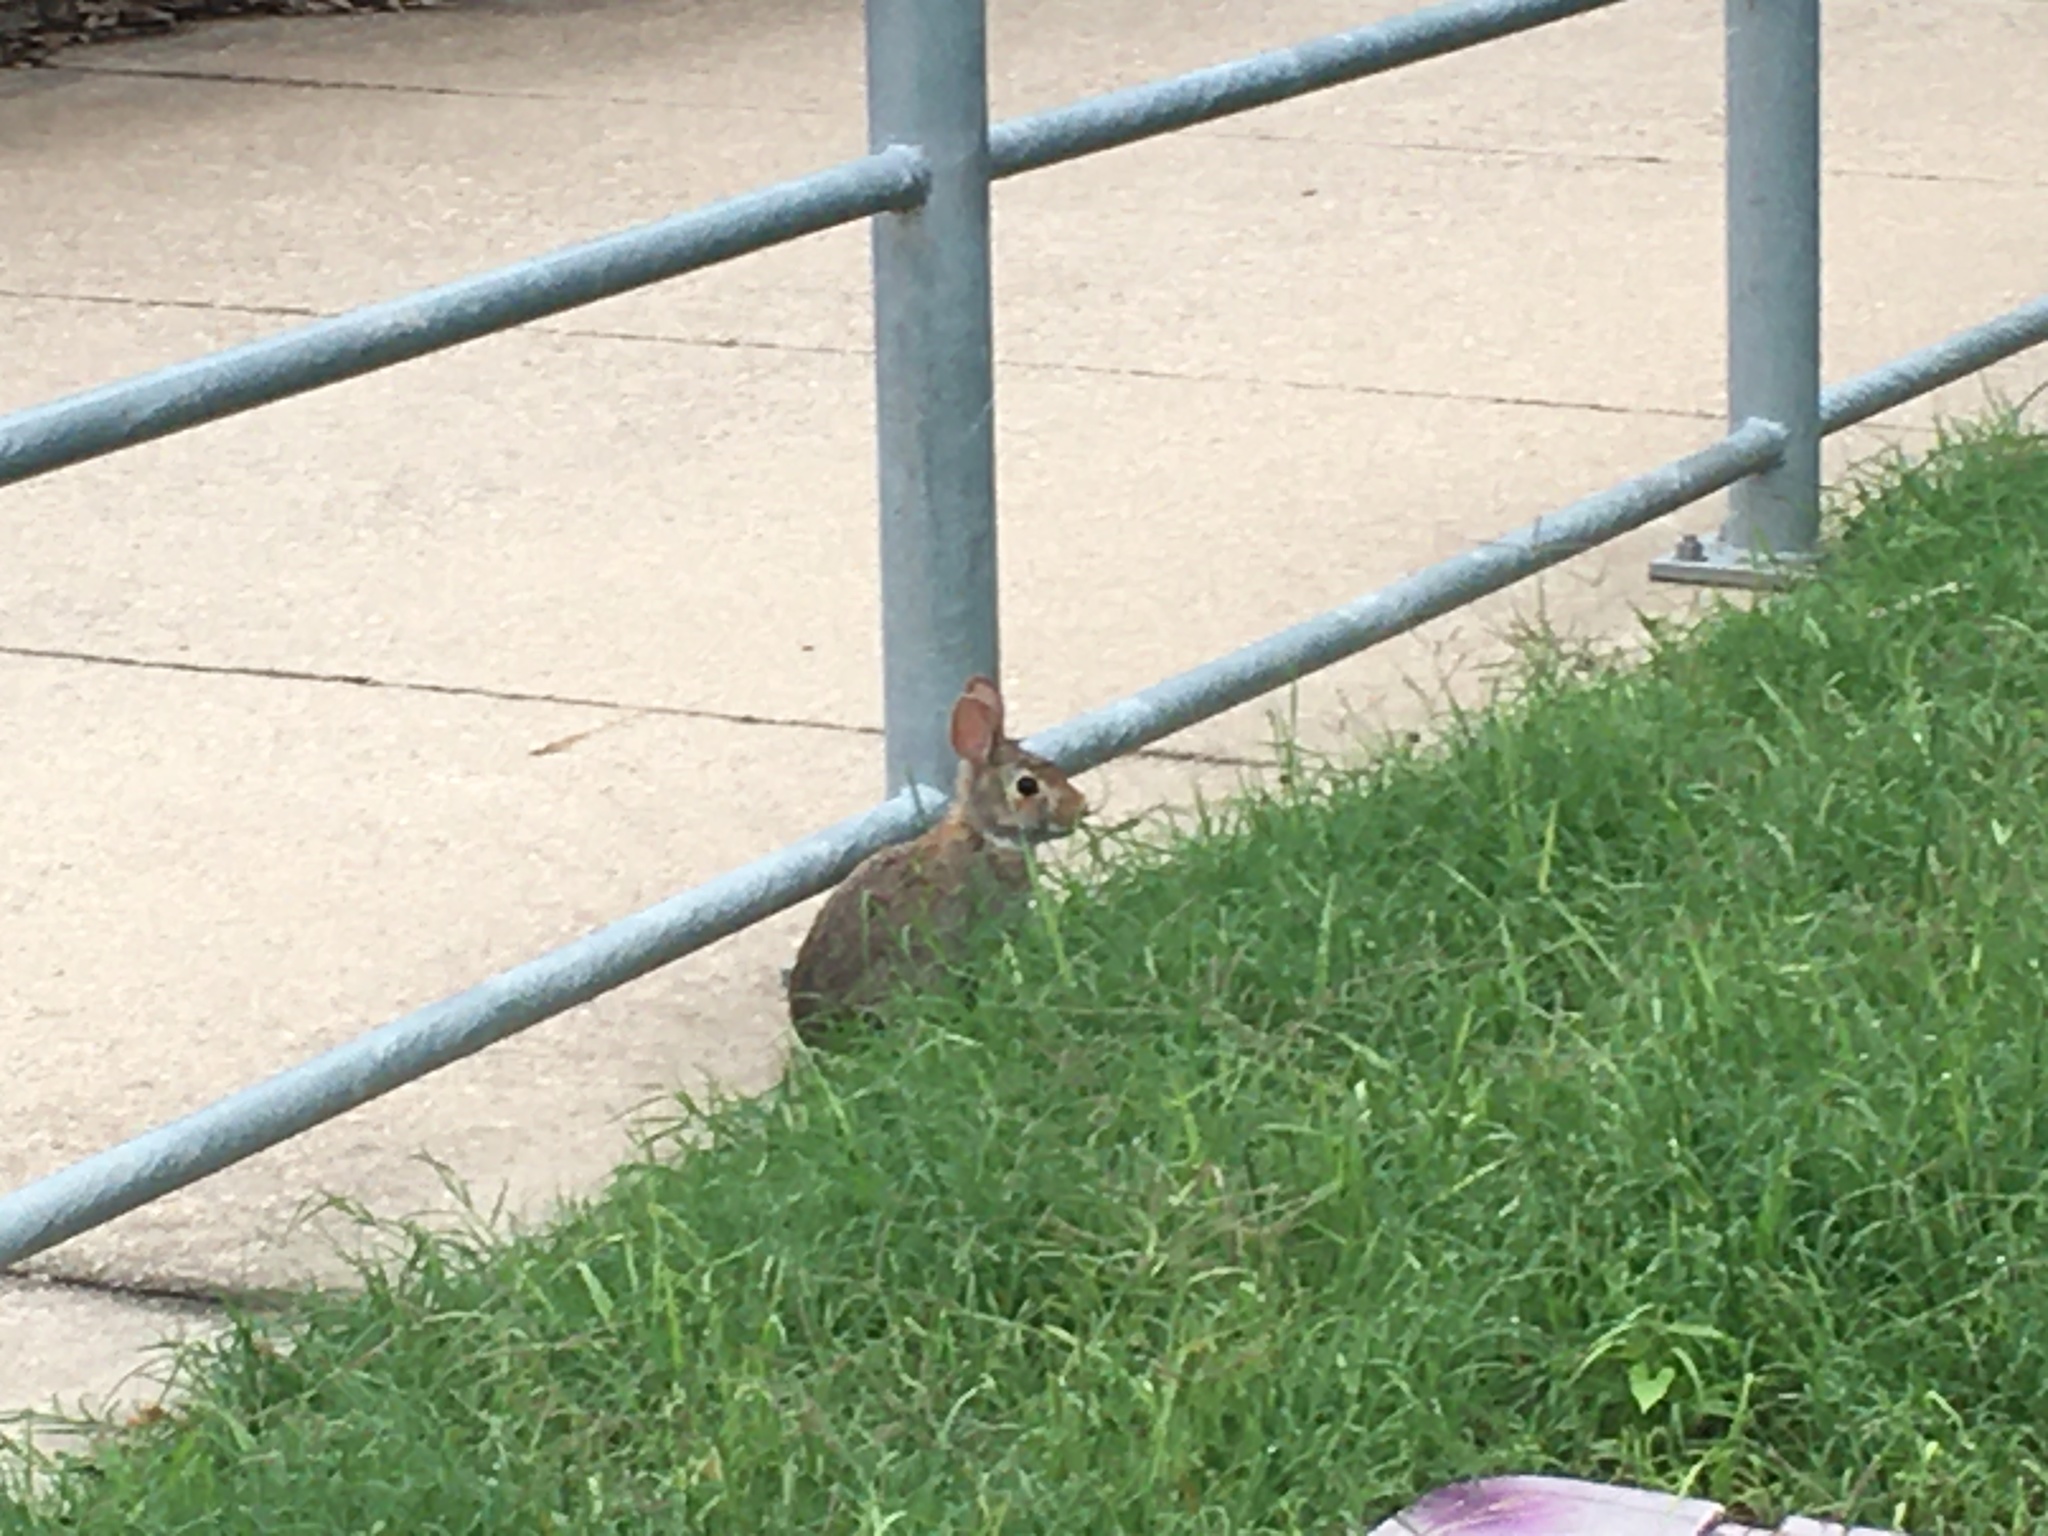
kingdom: Animalia
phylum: Chordata
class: Mammalia
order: Lagomorpha
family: Leporidae
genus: Sylvilagus
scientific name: Sylvilagus floridanus
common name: Eastern cottontail
